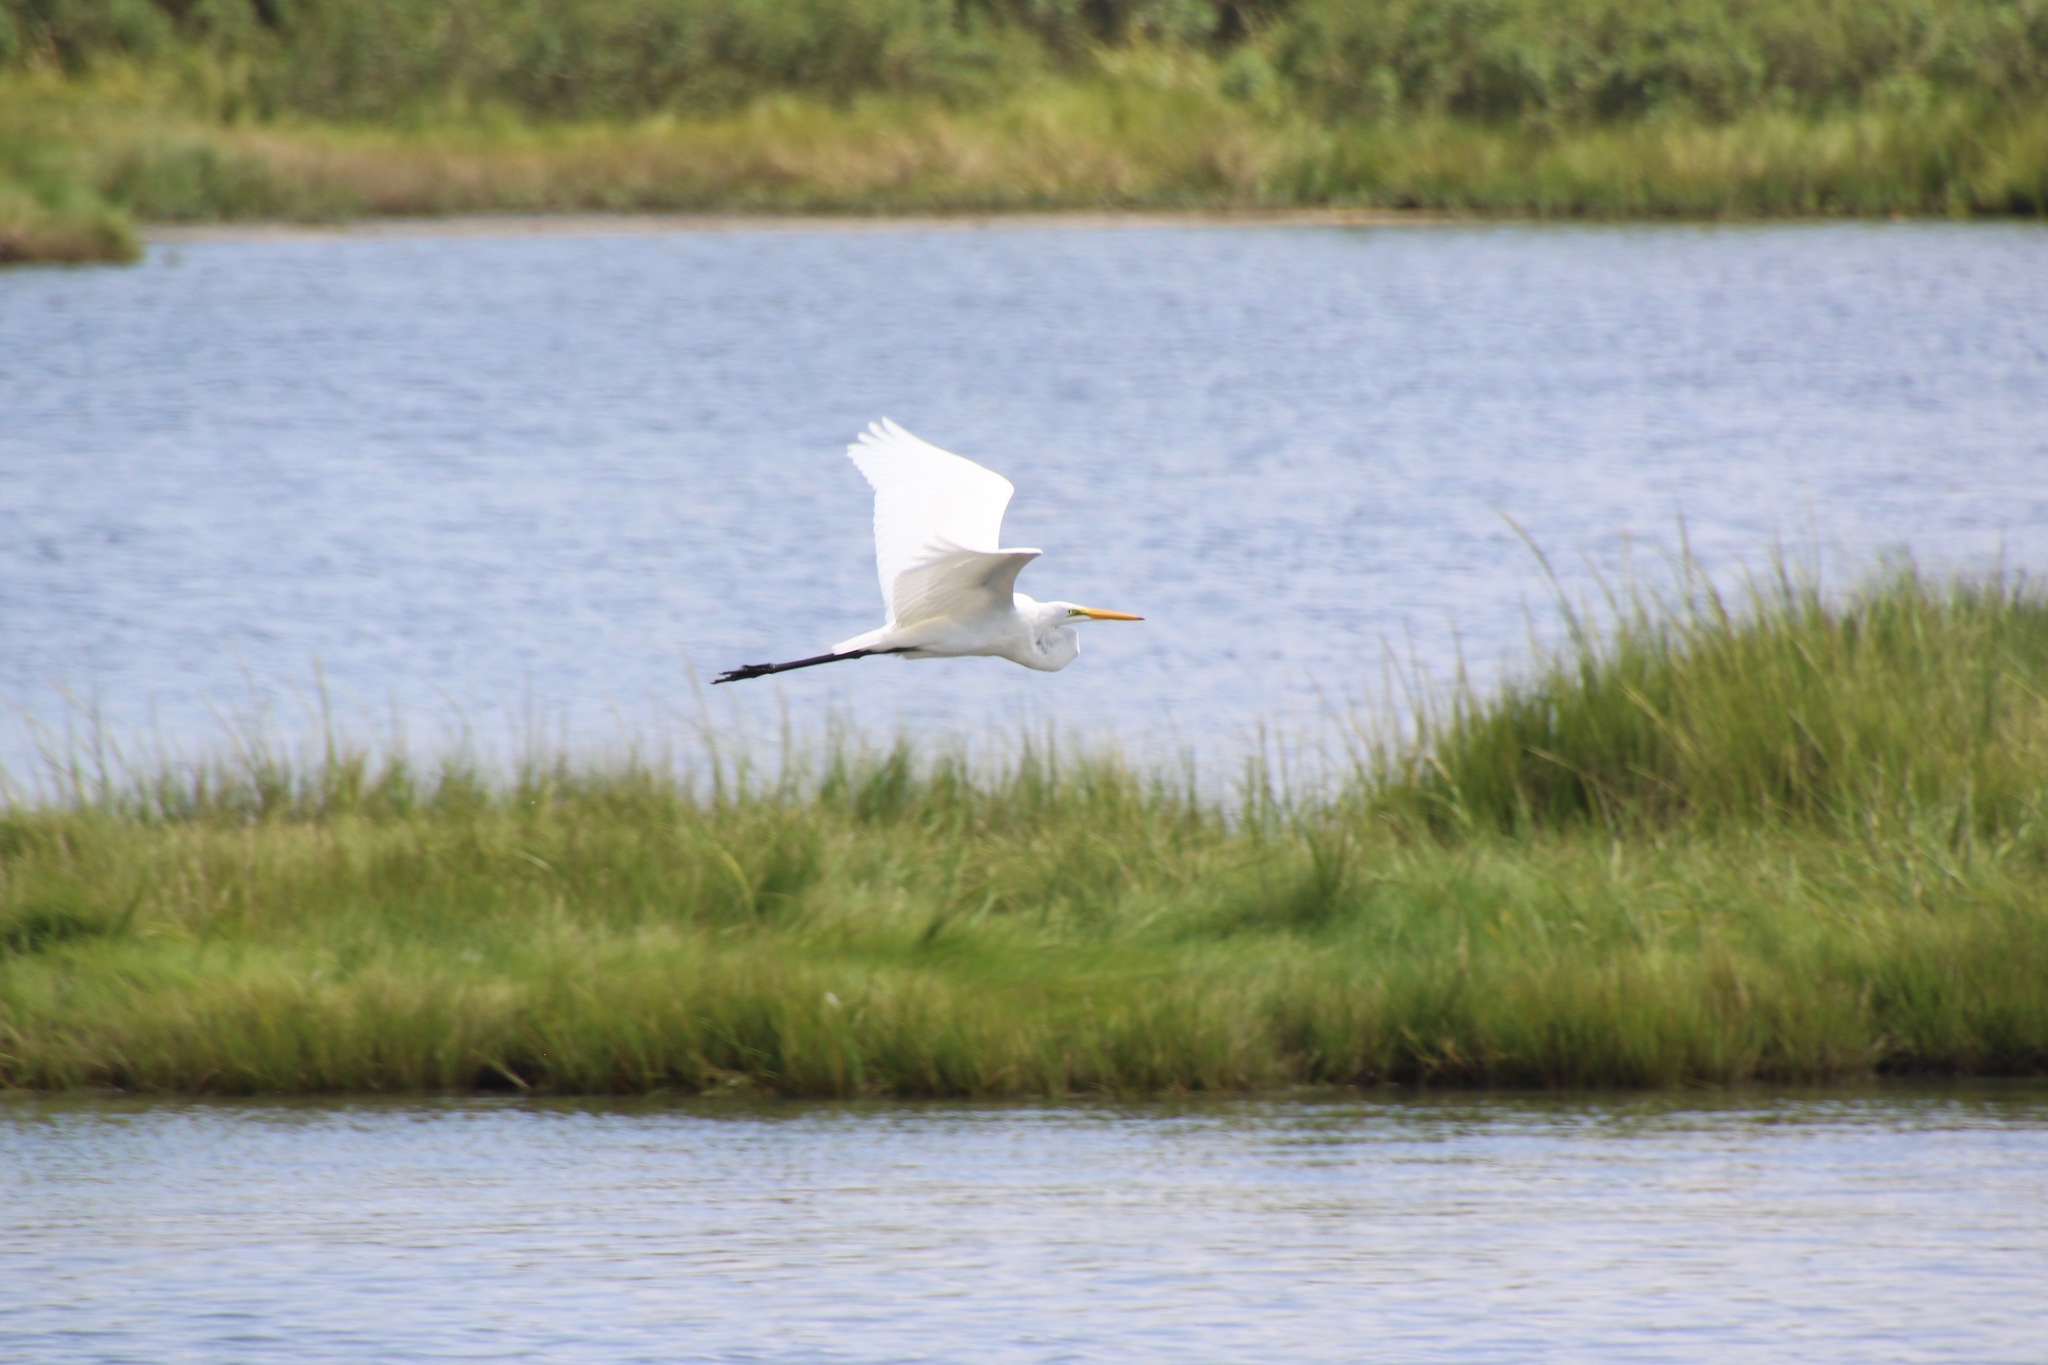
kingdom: Animalia
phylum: Chordata
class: Aves
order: Pelecaniformes
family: Ardeidae
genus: Ardea
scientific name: Ardea alba
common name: Great egret
